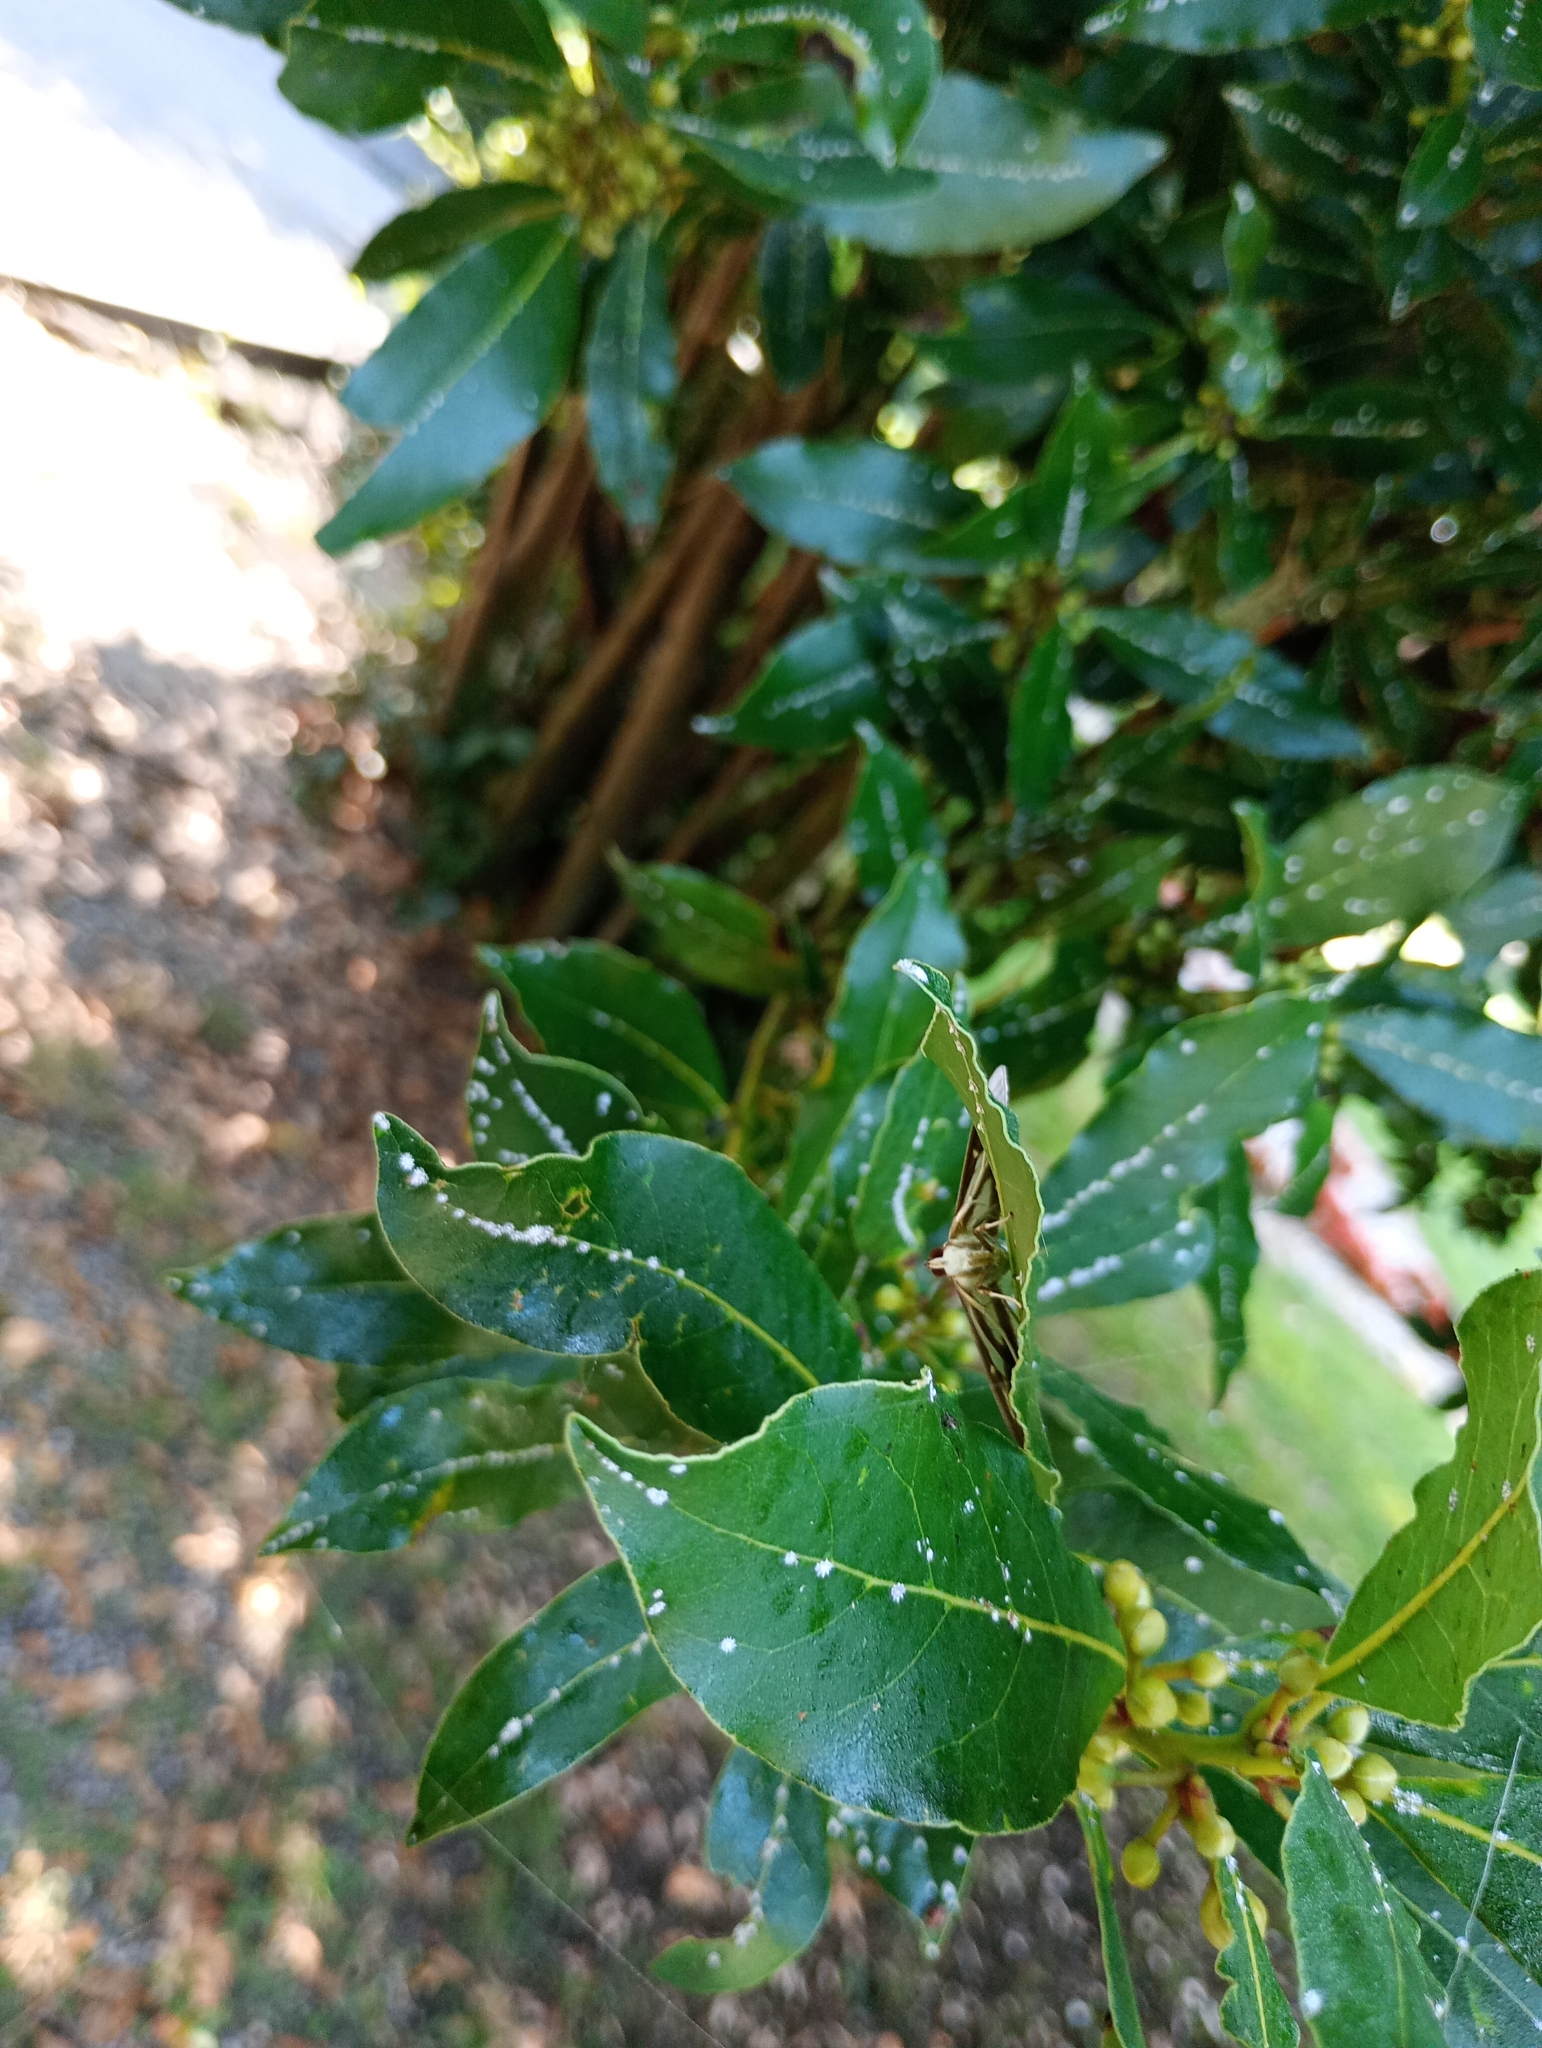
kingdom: Animalia
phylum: Arthropoda
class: Insecta
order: Lepidoptera
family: Crambidae
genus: Cydalima
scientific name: Cydalima perspectalis
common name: Box tree moth
